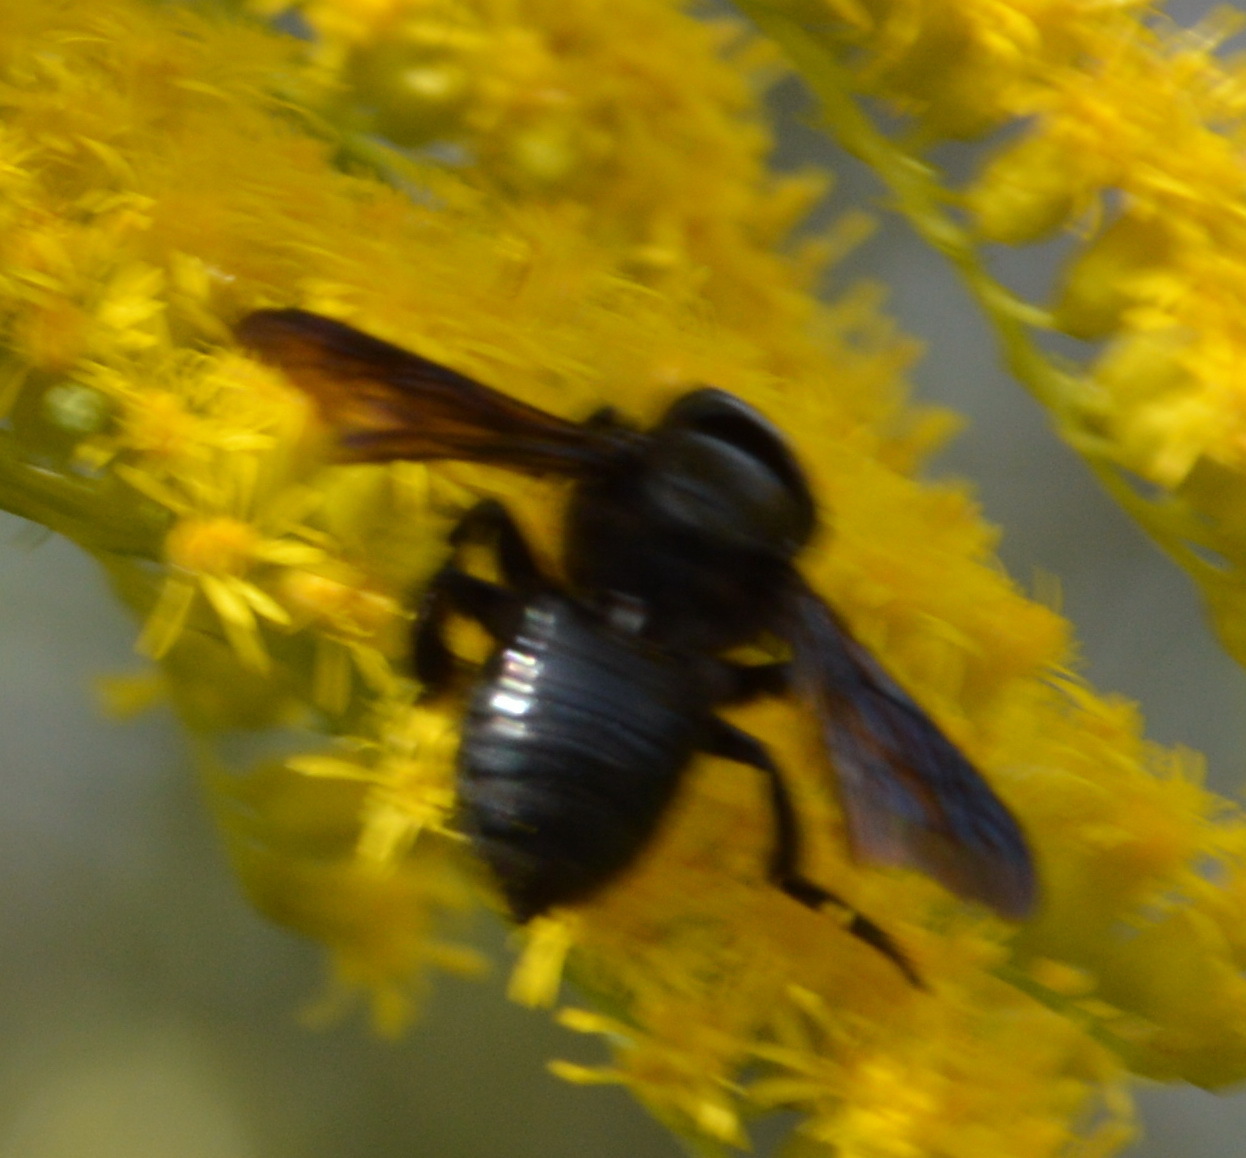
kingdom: Animalia
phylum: Arthropoda
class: Insecta
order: Hymenoptera
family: Megachilidae
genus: Megachile
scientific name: Megachile xylocopoides
